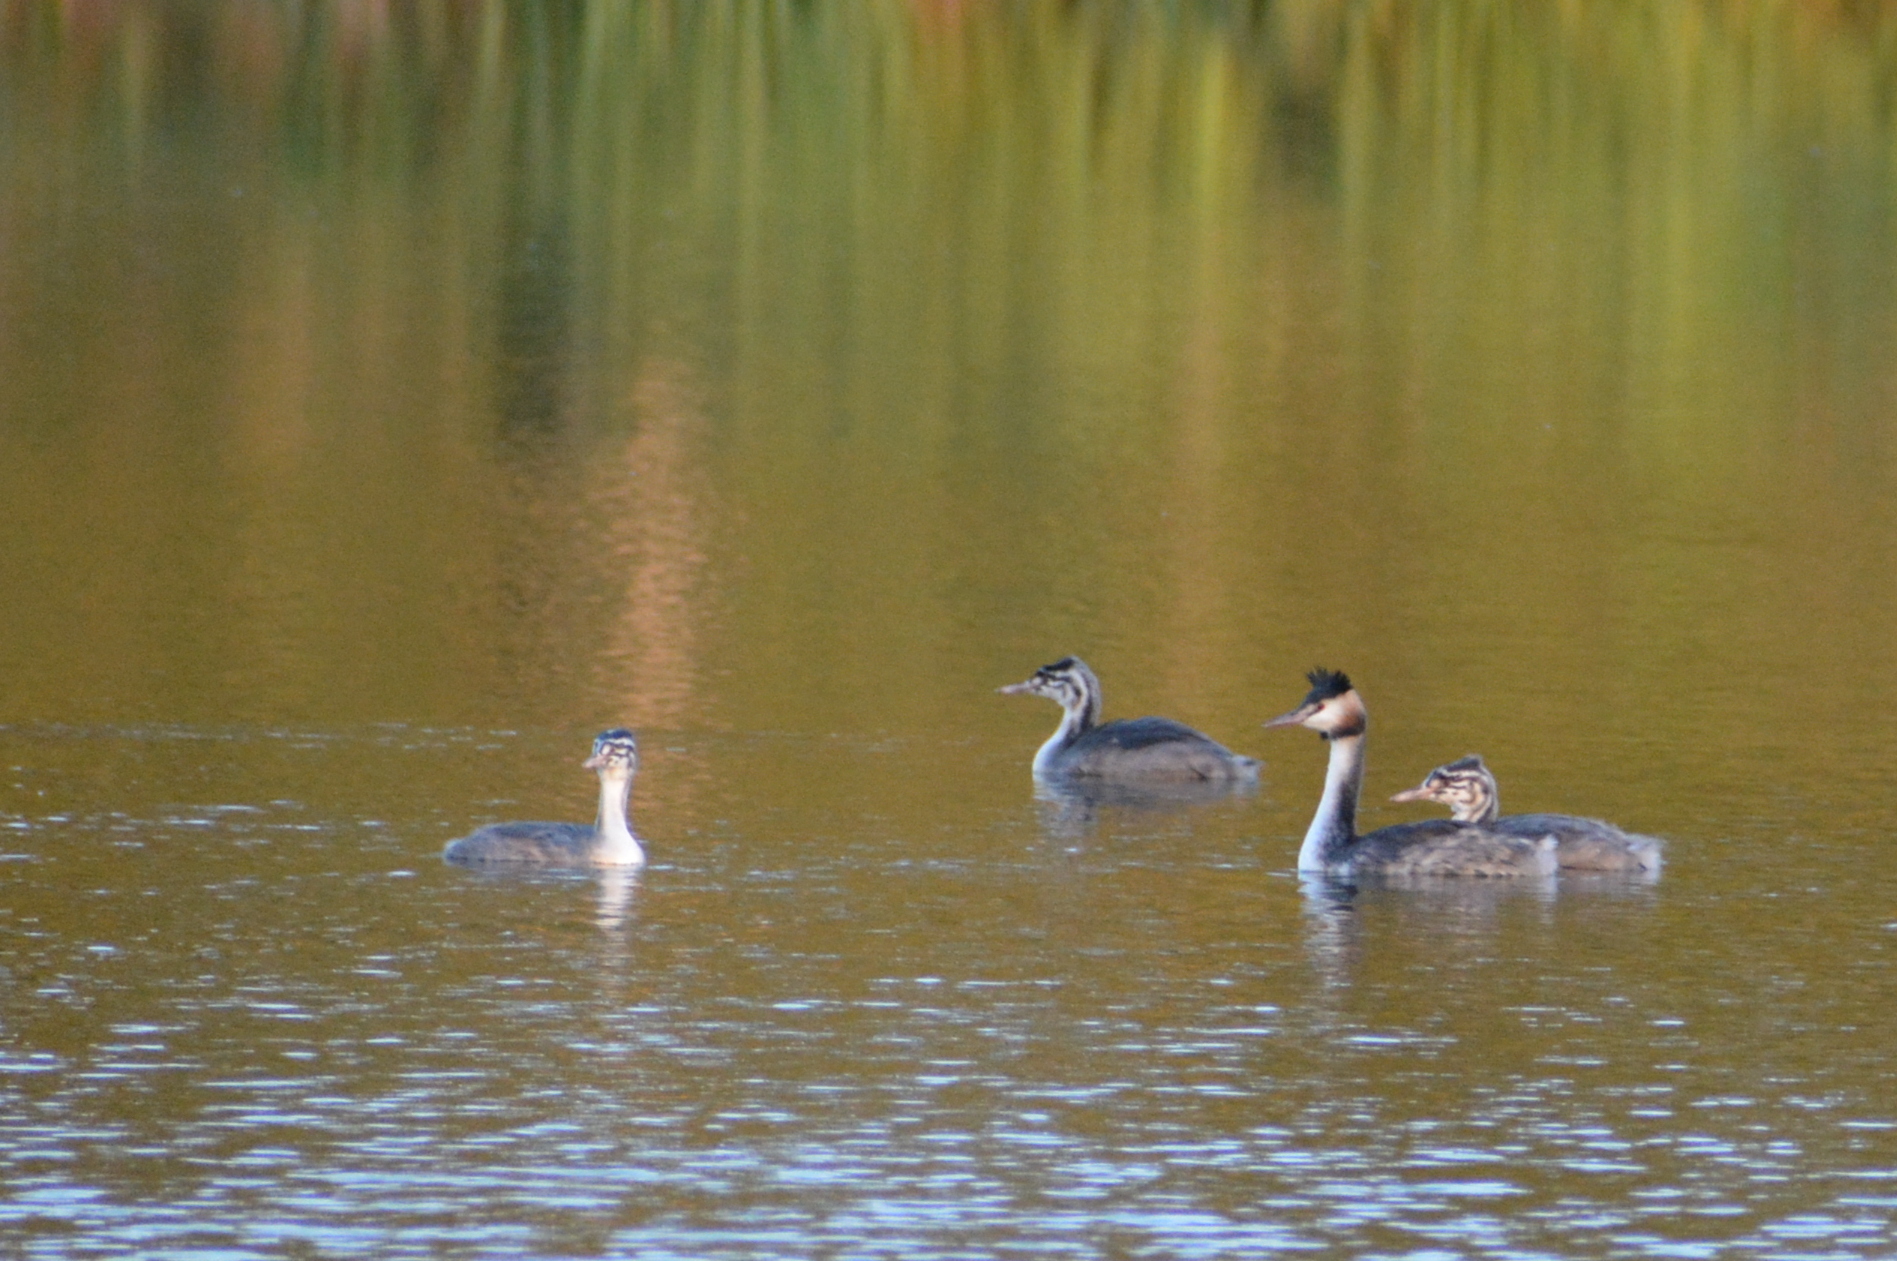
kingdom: Animalia
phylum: Chordata
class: Aves
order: Podicipediformes
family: Podicipedidae
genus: Podiceps
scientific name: Podiceps cristatus
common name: Great crested grebe
